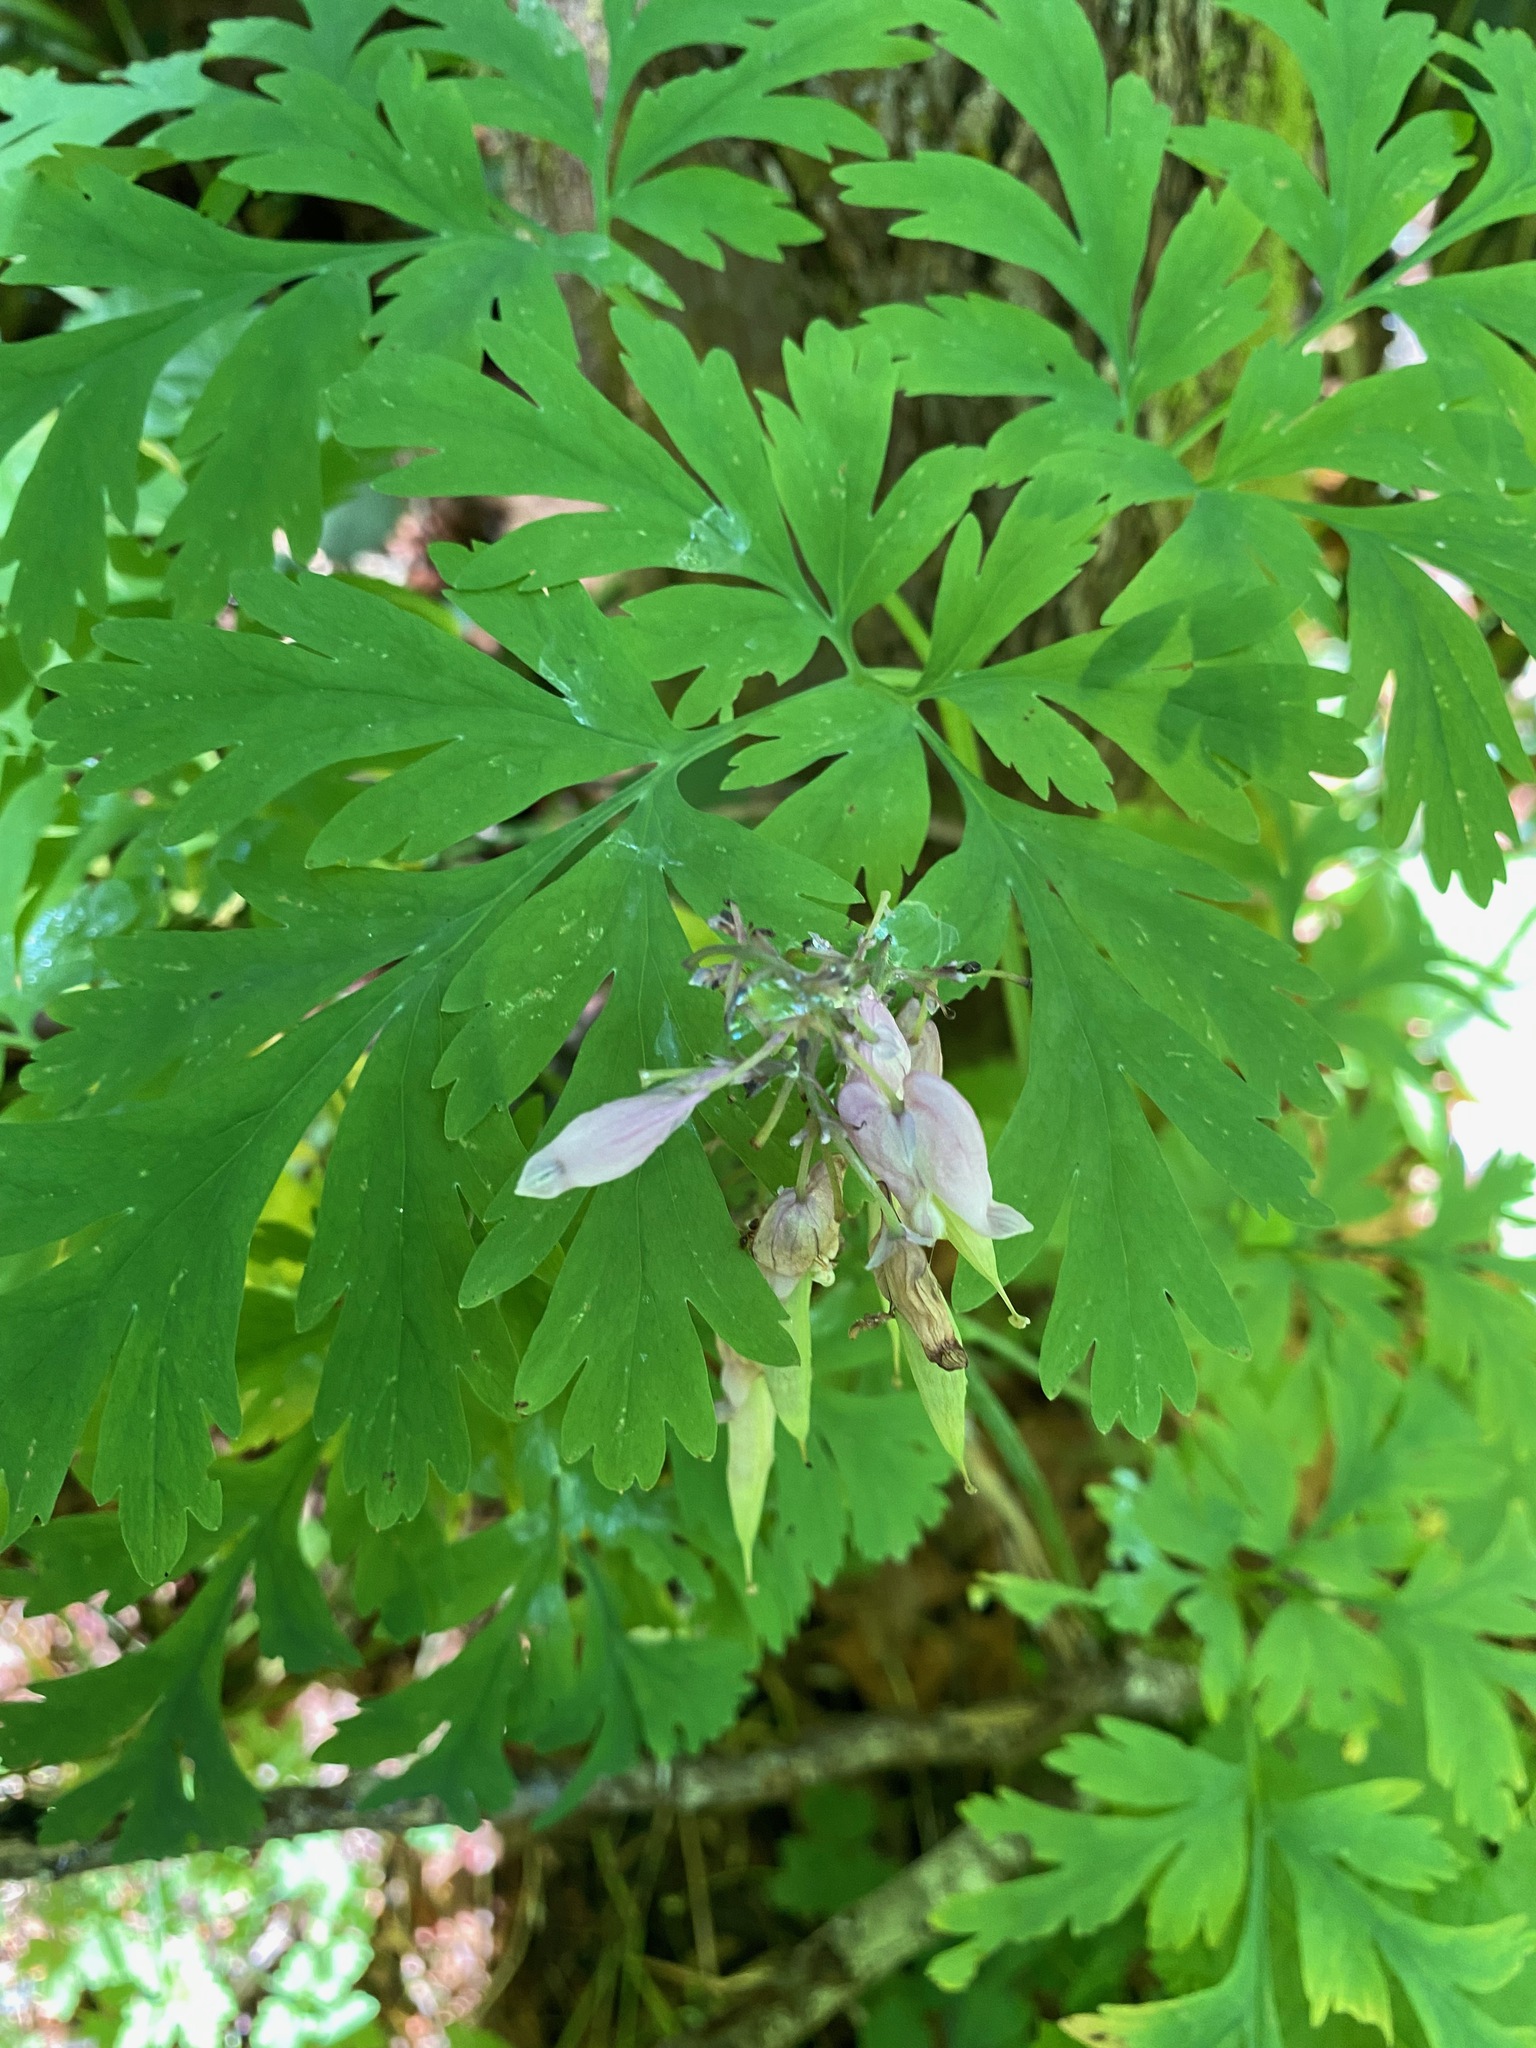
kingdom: Plantae
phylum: Tracheophyta
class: Magnoliopsida
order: Ranunculales
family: Papaveraceae
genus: Dicentra
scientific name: Dicentra formosa
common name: Bleeding-heart
